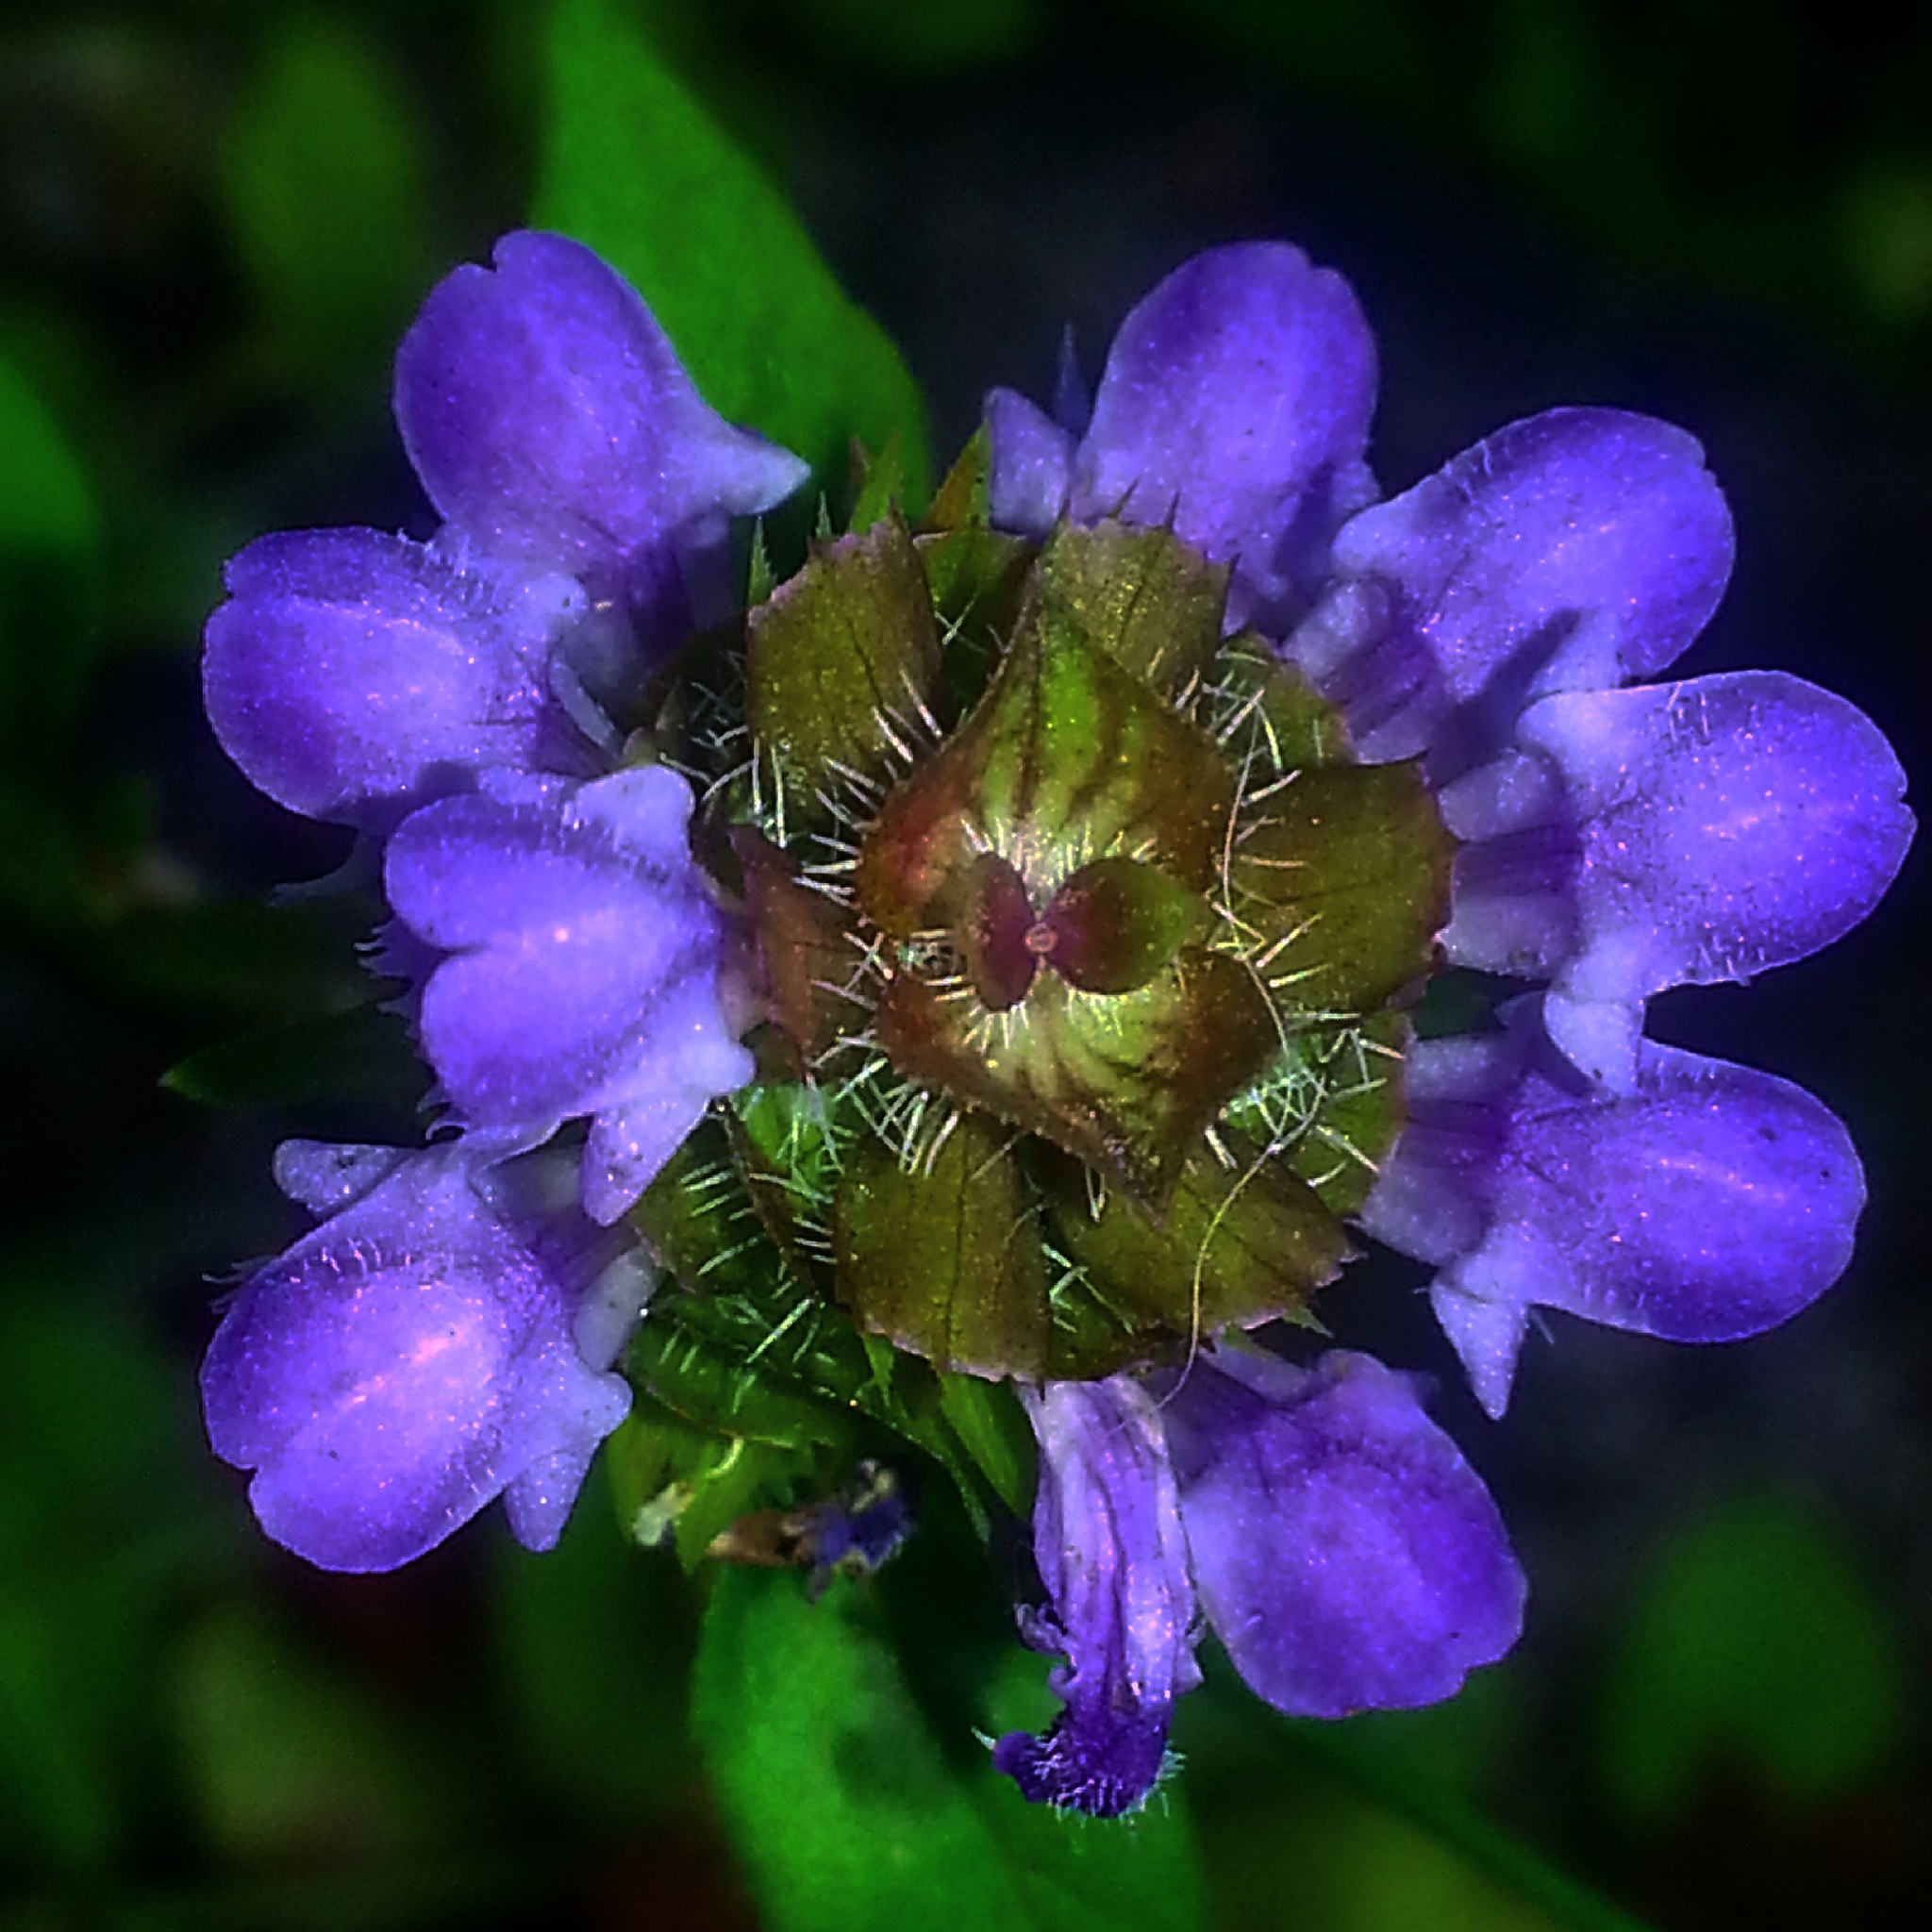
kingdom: Plantae
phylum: Tracheophyta
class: Magnoliopsida
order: Lamiales
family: Lamiaceae
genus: Prunella
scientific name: Prunella vulgaris
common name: Heal-all
